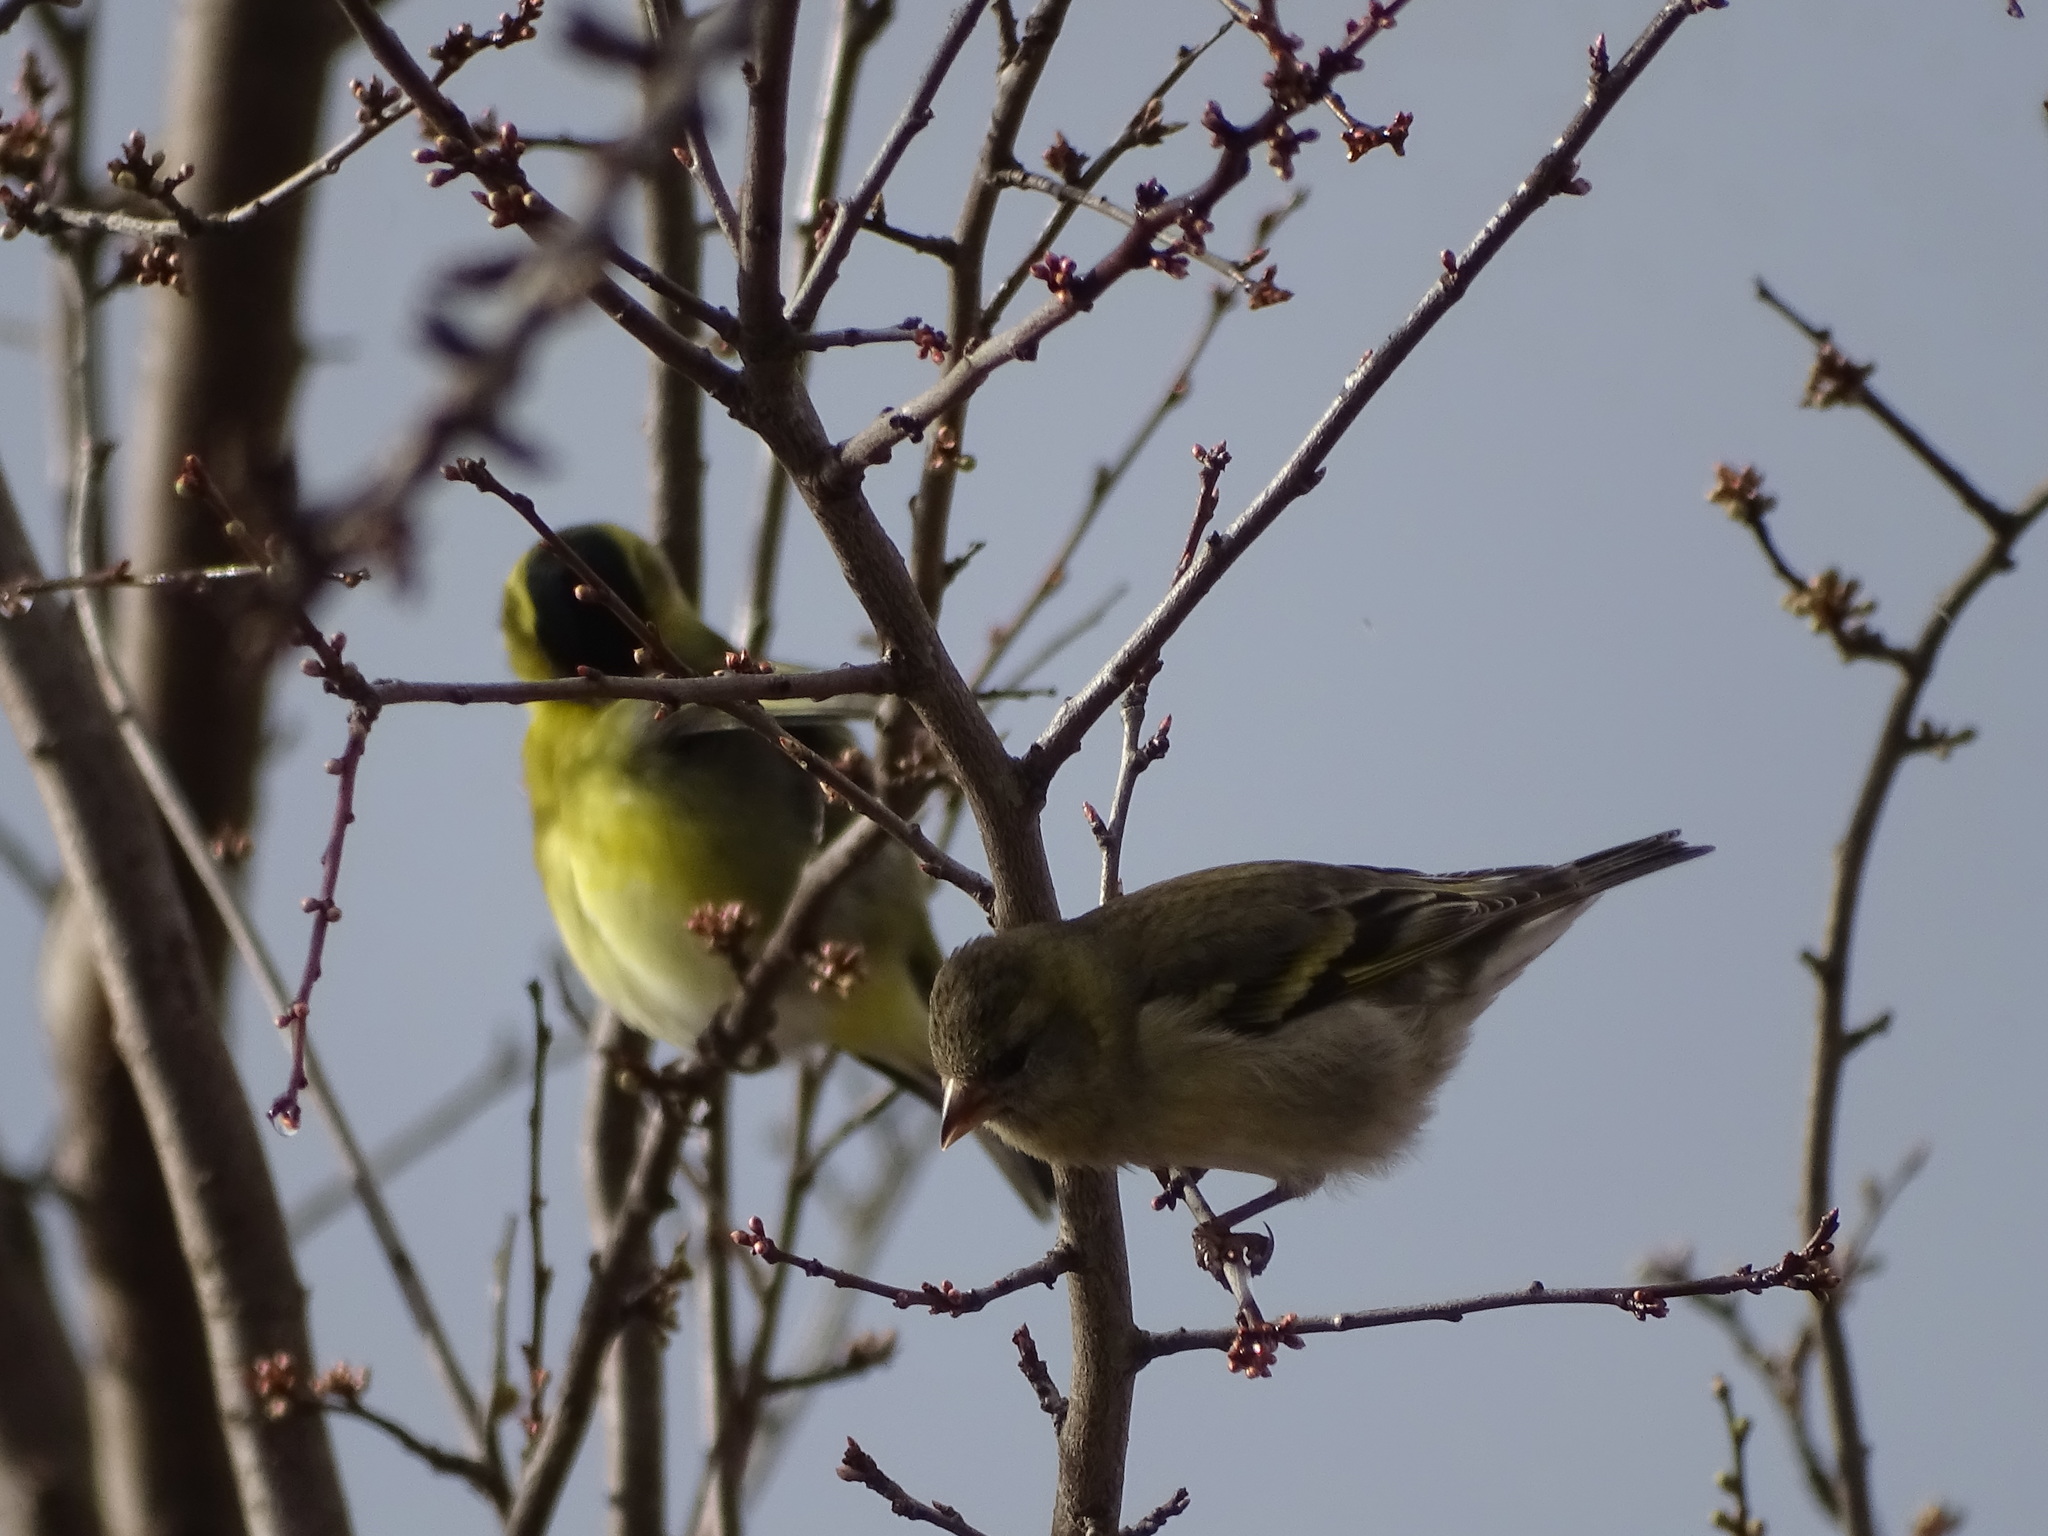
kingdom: Animalia
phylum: Chordata
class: Aves
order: Passeriformes
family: Fringillidae
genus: Spinus
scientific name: Spinus barbatus
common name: Black-chinned siskin
